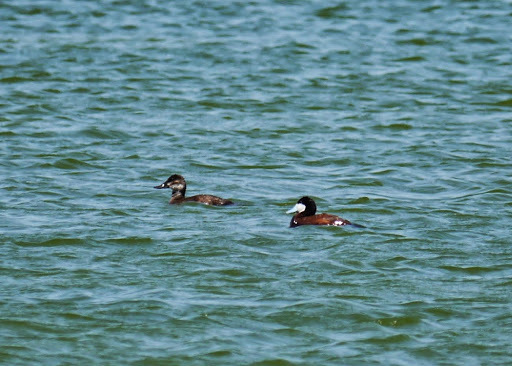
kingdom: Animalia
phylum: Chordata
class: Aves
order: Anseriformes
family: Anatidae
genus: Oxyura
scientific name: Oxyura jamaicensis
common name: Ruddy duck
